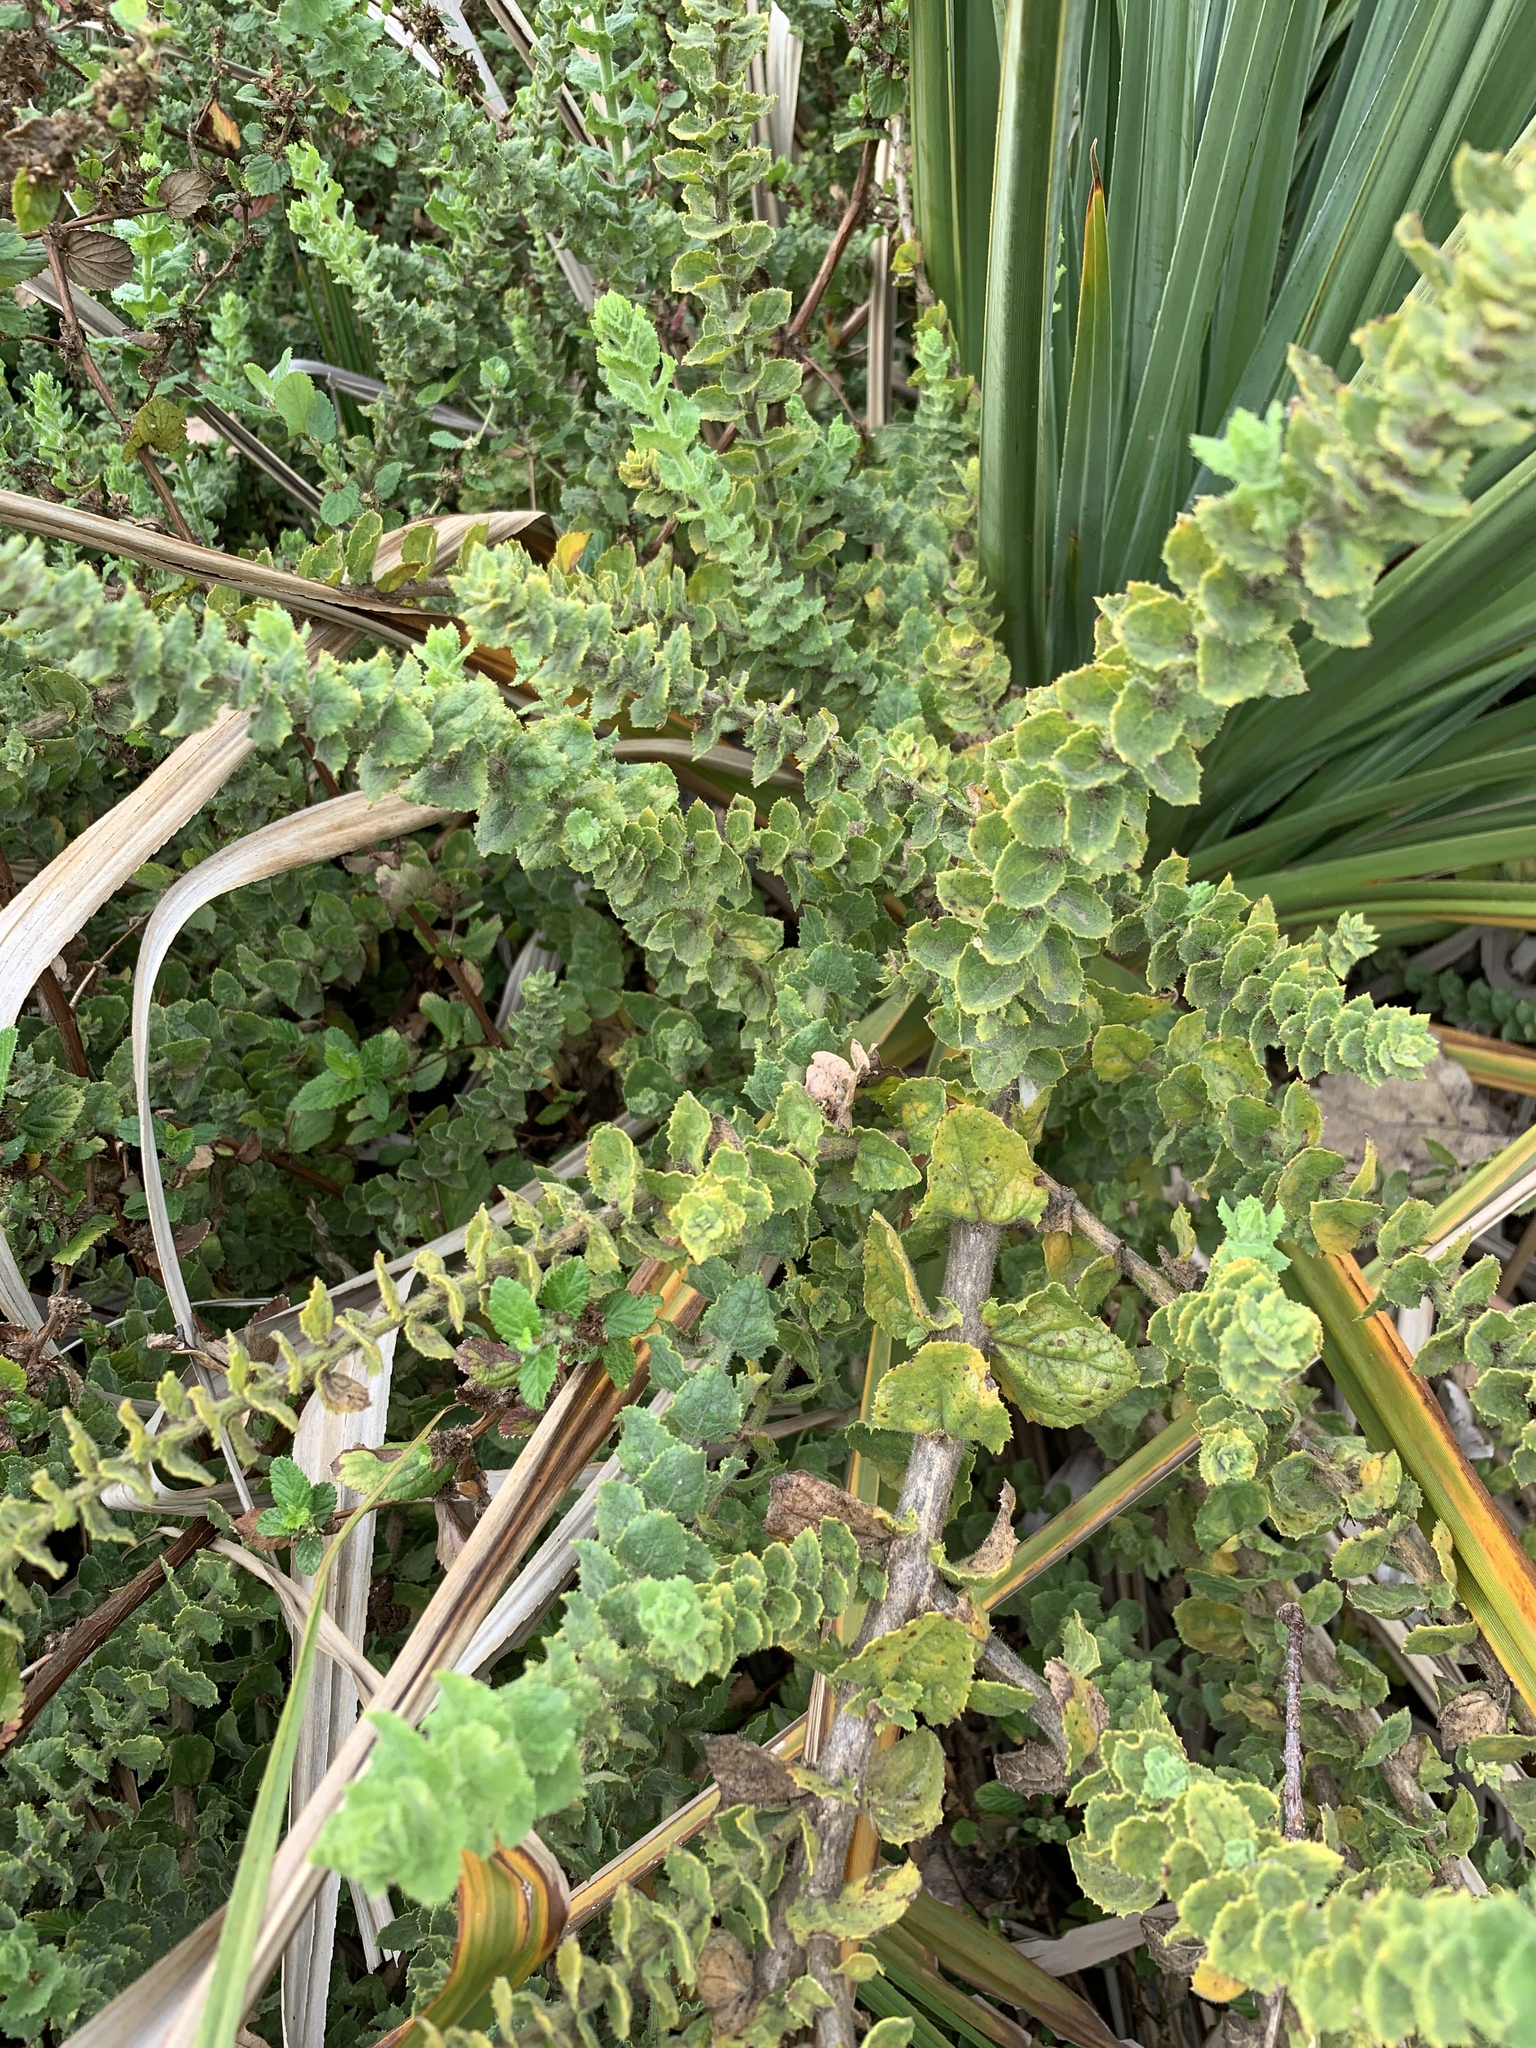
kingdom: Plantae
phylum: Tracheophyta
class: Magnoliopsida
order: Lamiales
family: Scrophulariaceae
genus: Oftia
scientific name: Oftia africana
